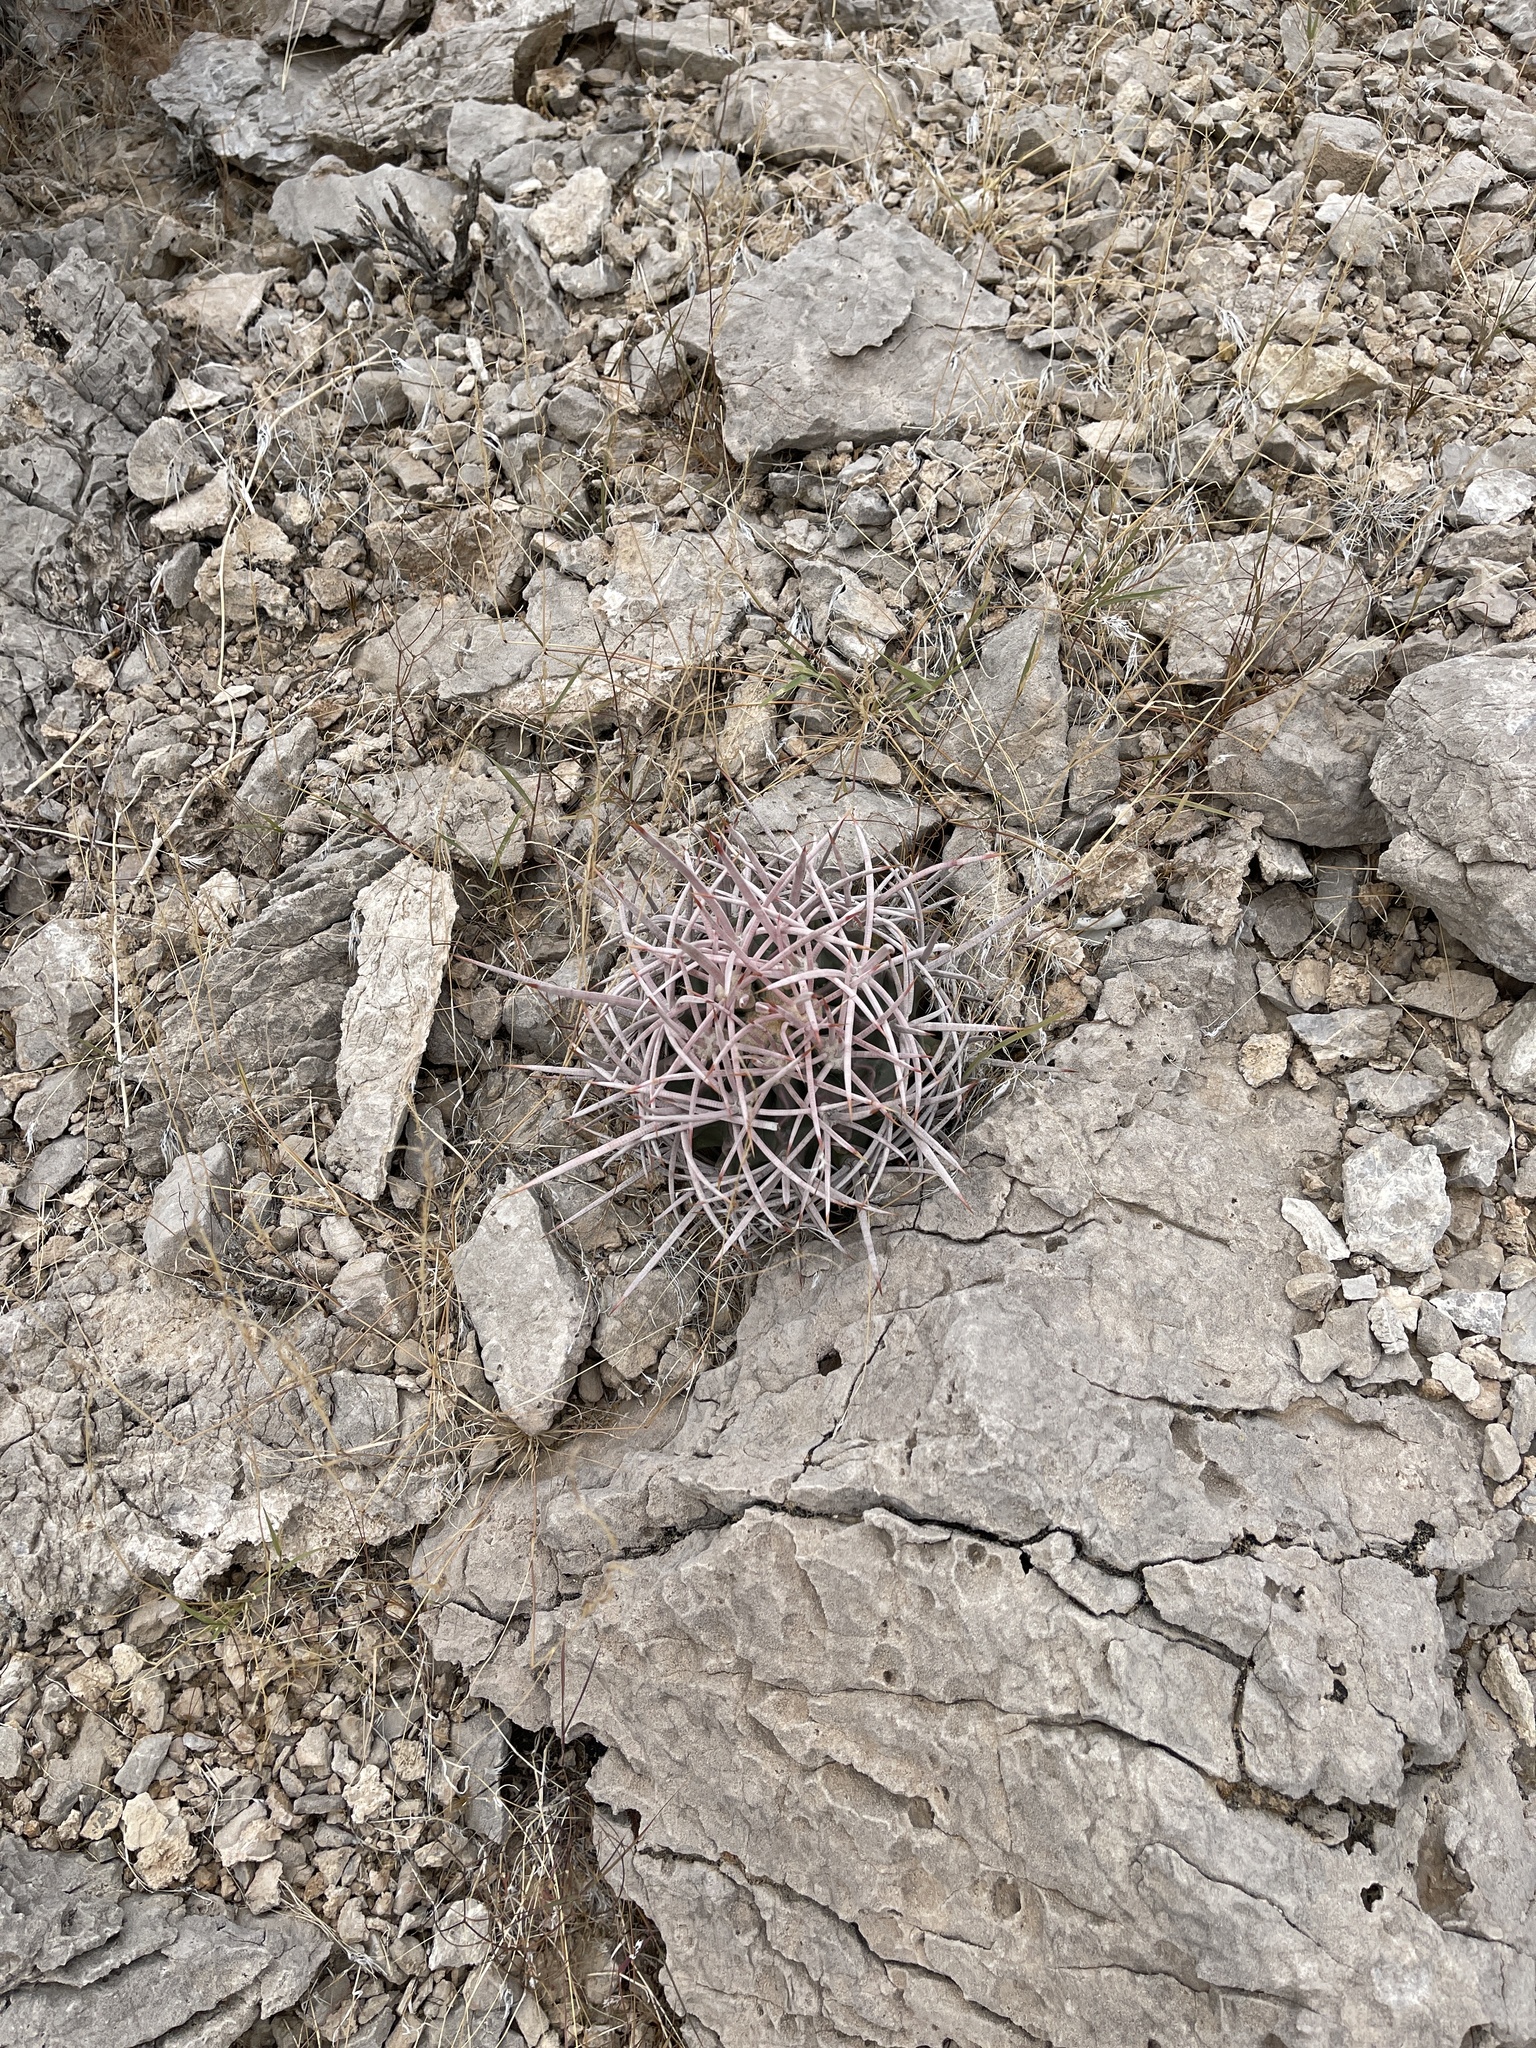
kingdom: Plantae
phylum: Tracheophyta
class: Magnoliopsida
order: Caryophyllales
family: Cactaceae
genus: Echinocactus
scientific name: Echinocactus polycephalus
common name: Cottontop cactus
